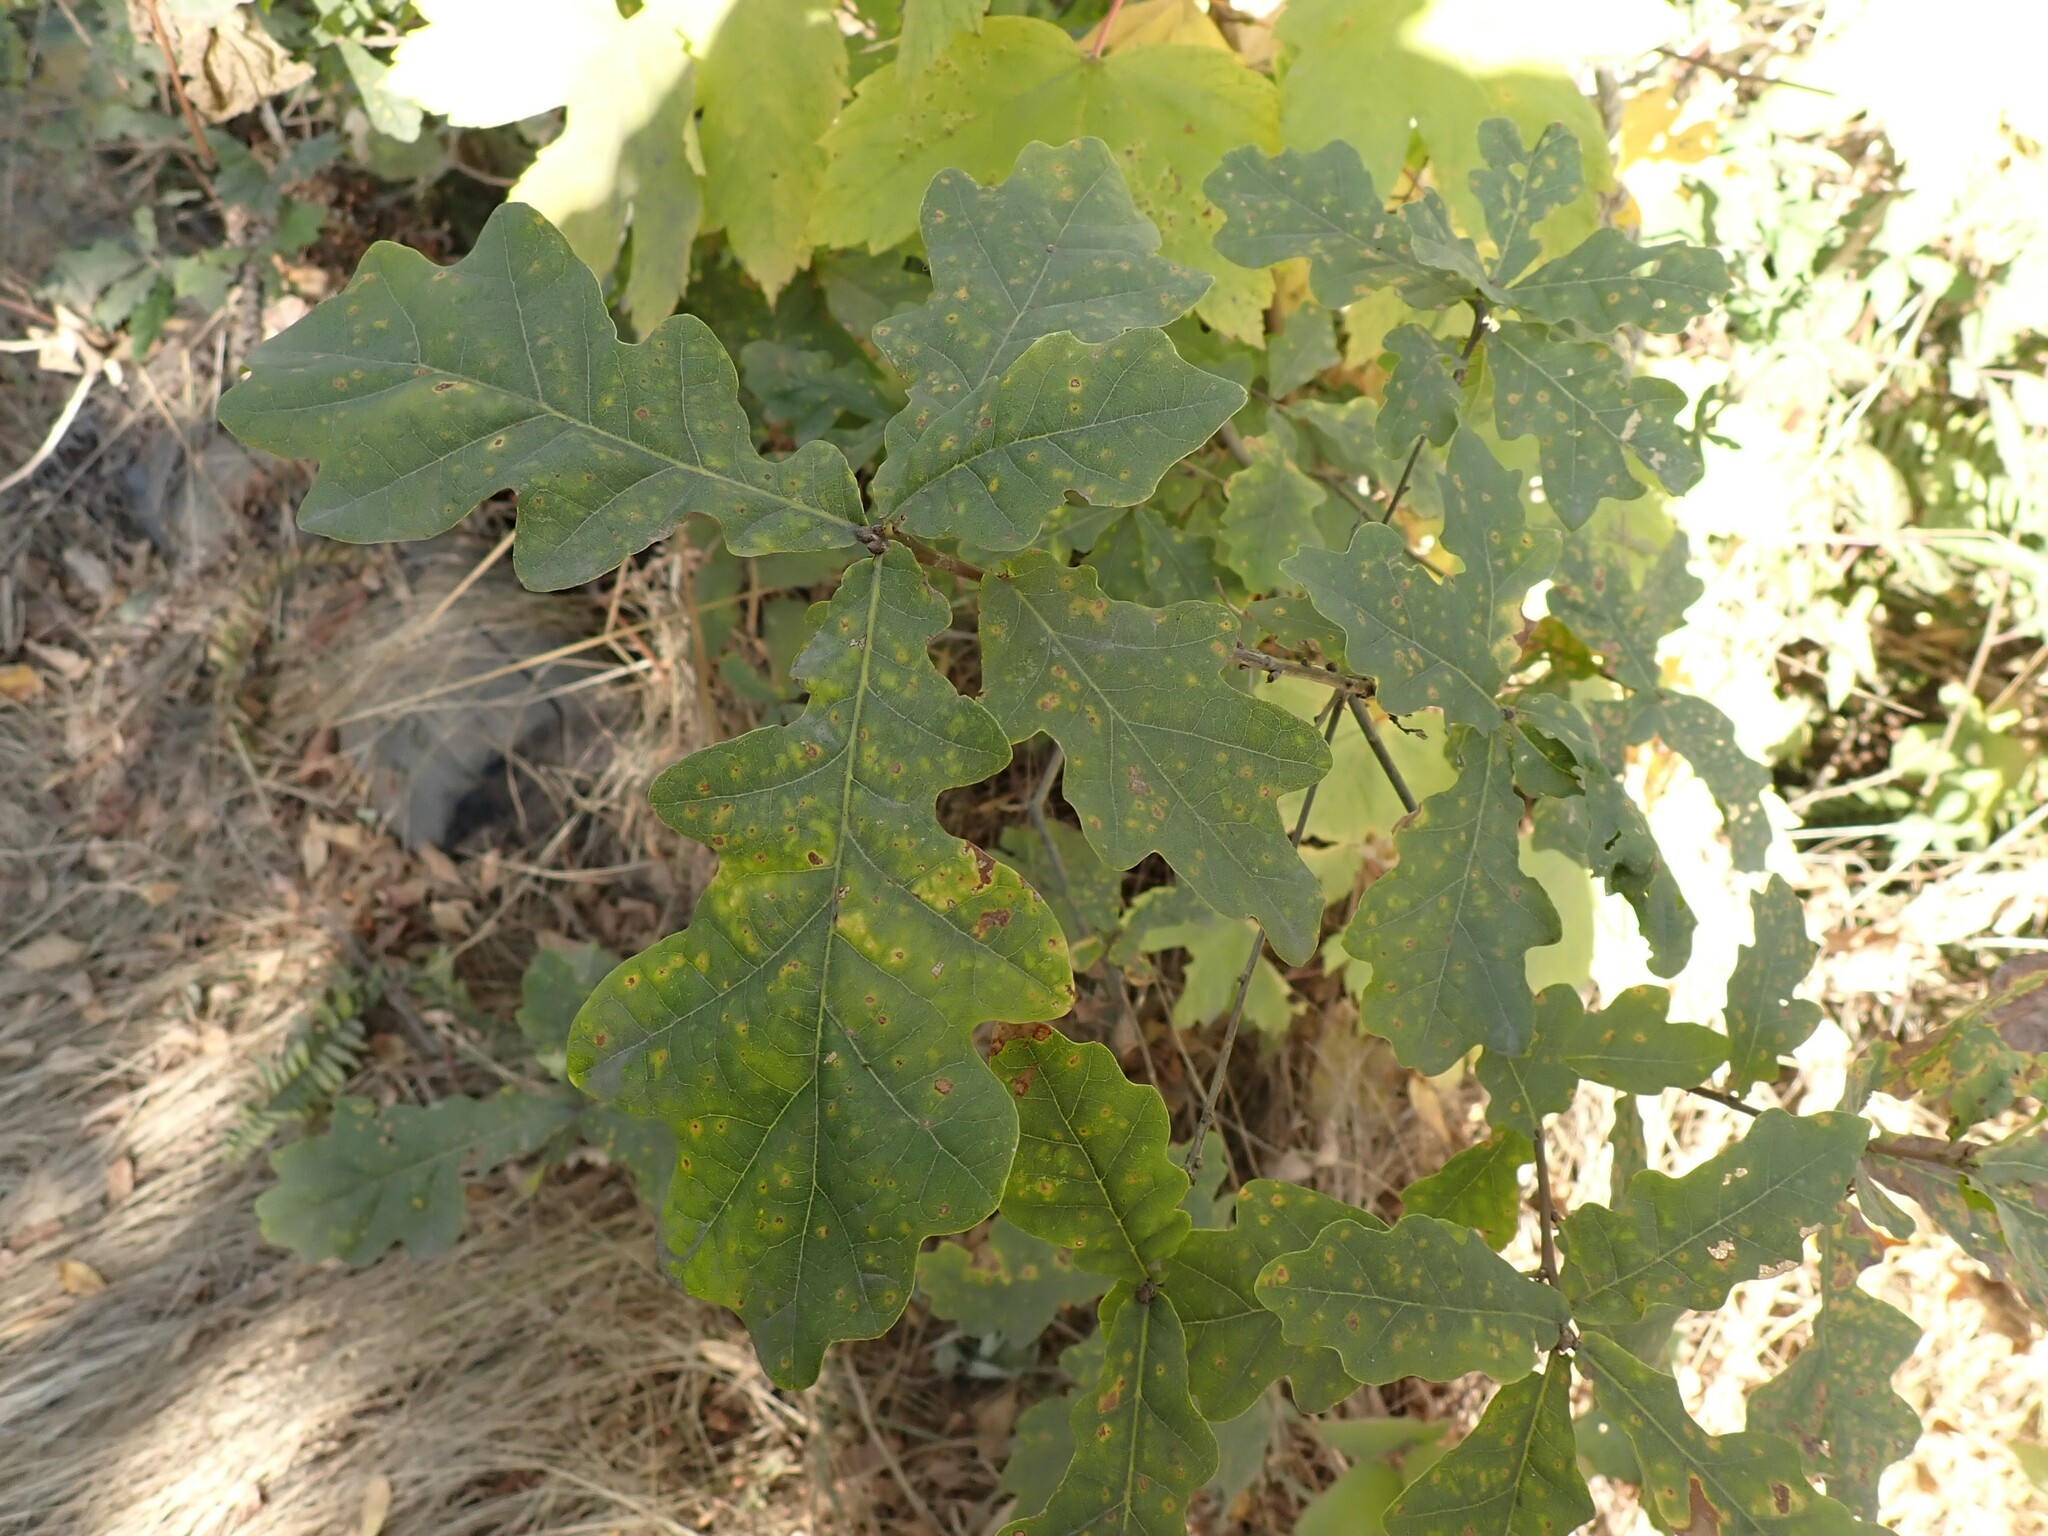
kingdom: Plantae
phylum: Tracheophyta
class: Magnoliopsida
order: Fagales
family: Fagaceae
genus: Quercus
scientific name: Quercus robur
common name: Pedunculate oak
